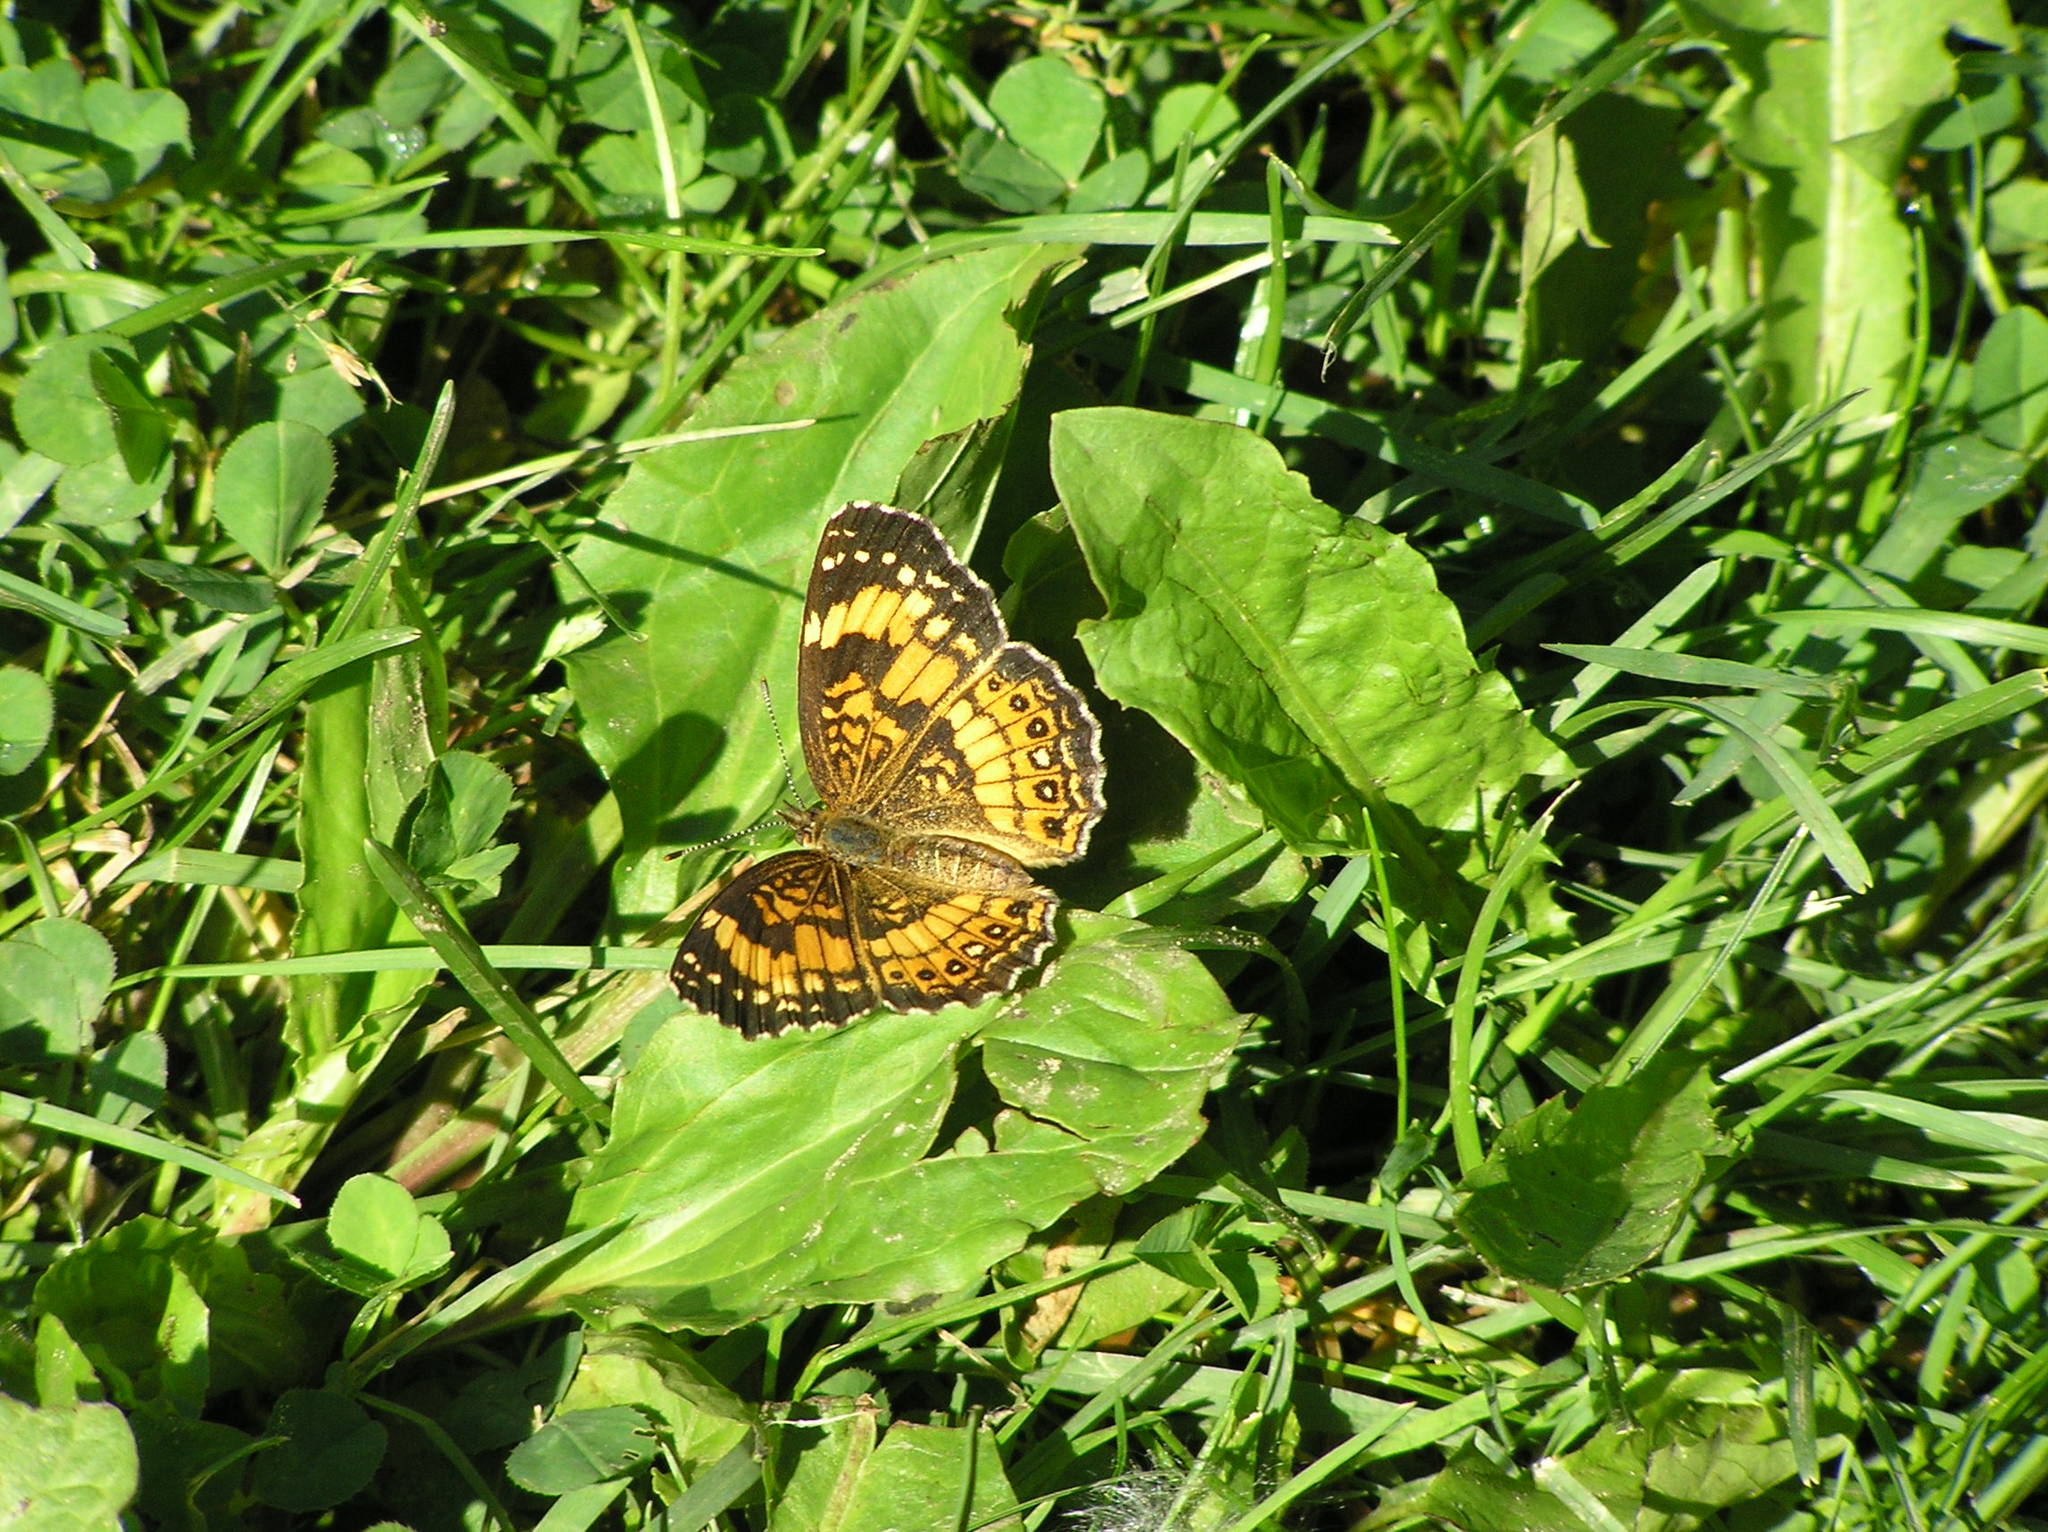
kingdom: Animalia
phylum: Arthropoda
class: Insecta
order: Lepidoptera
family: Nymphalidae
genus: Chlosyne
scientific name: Chlosyne nycteis
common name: Silvery checkerspot
